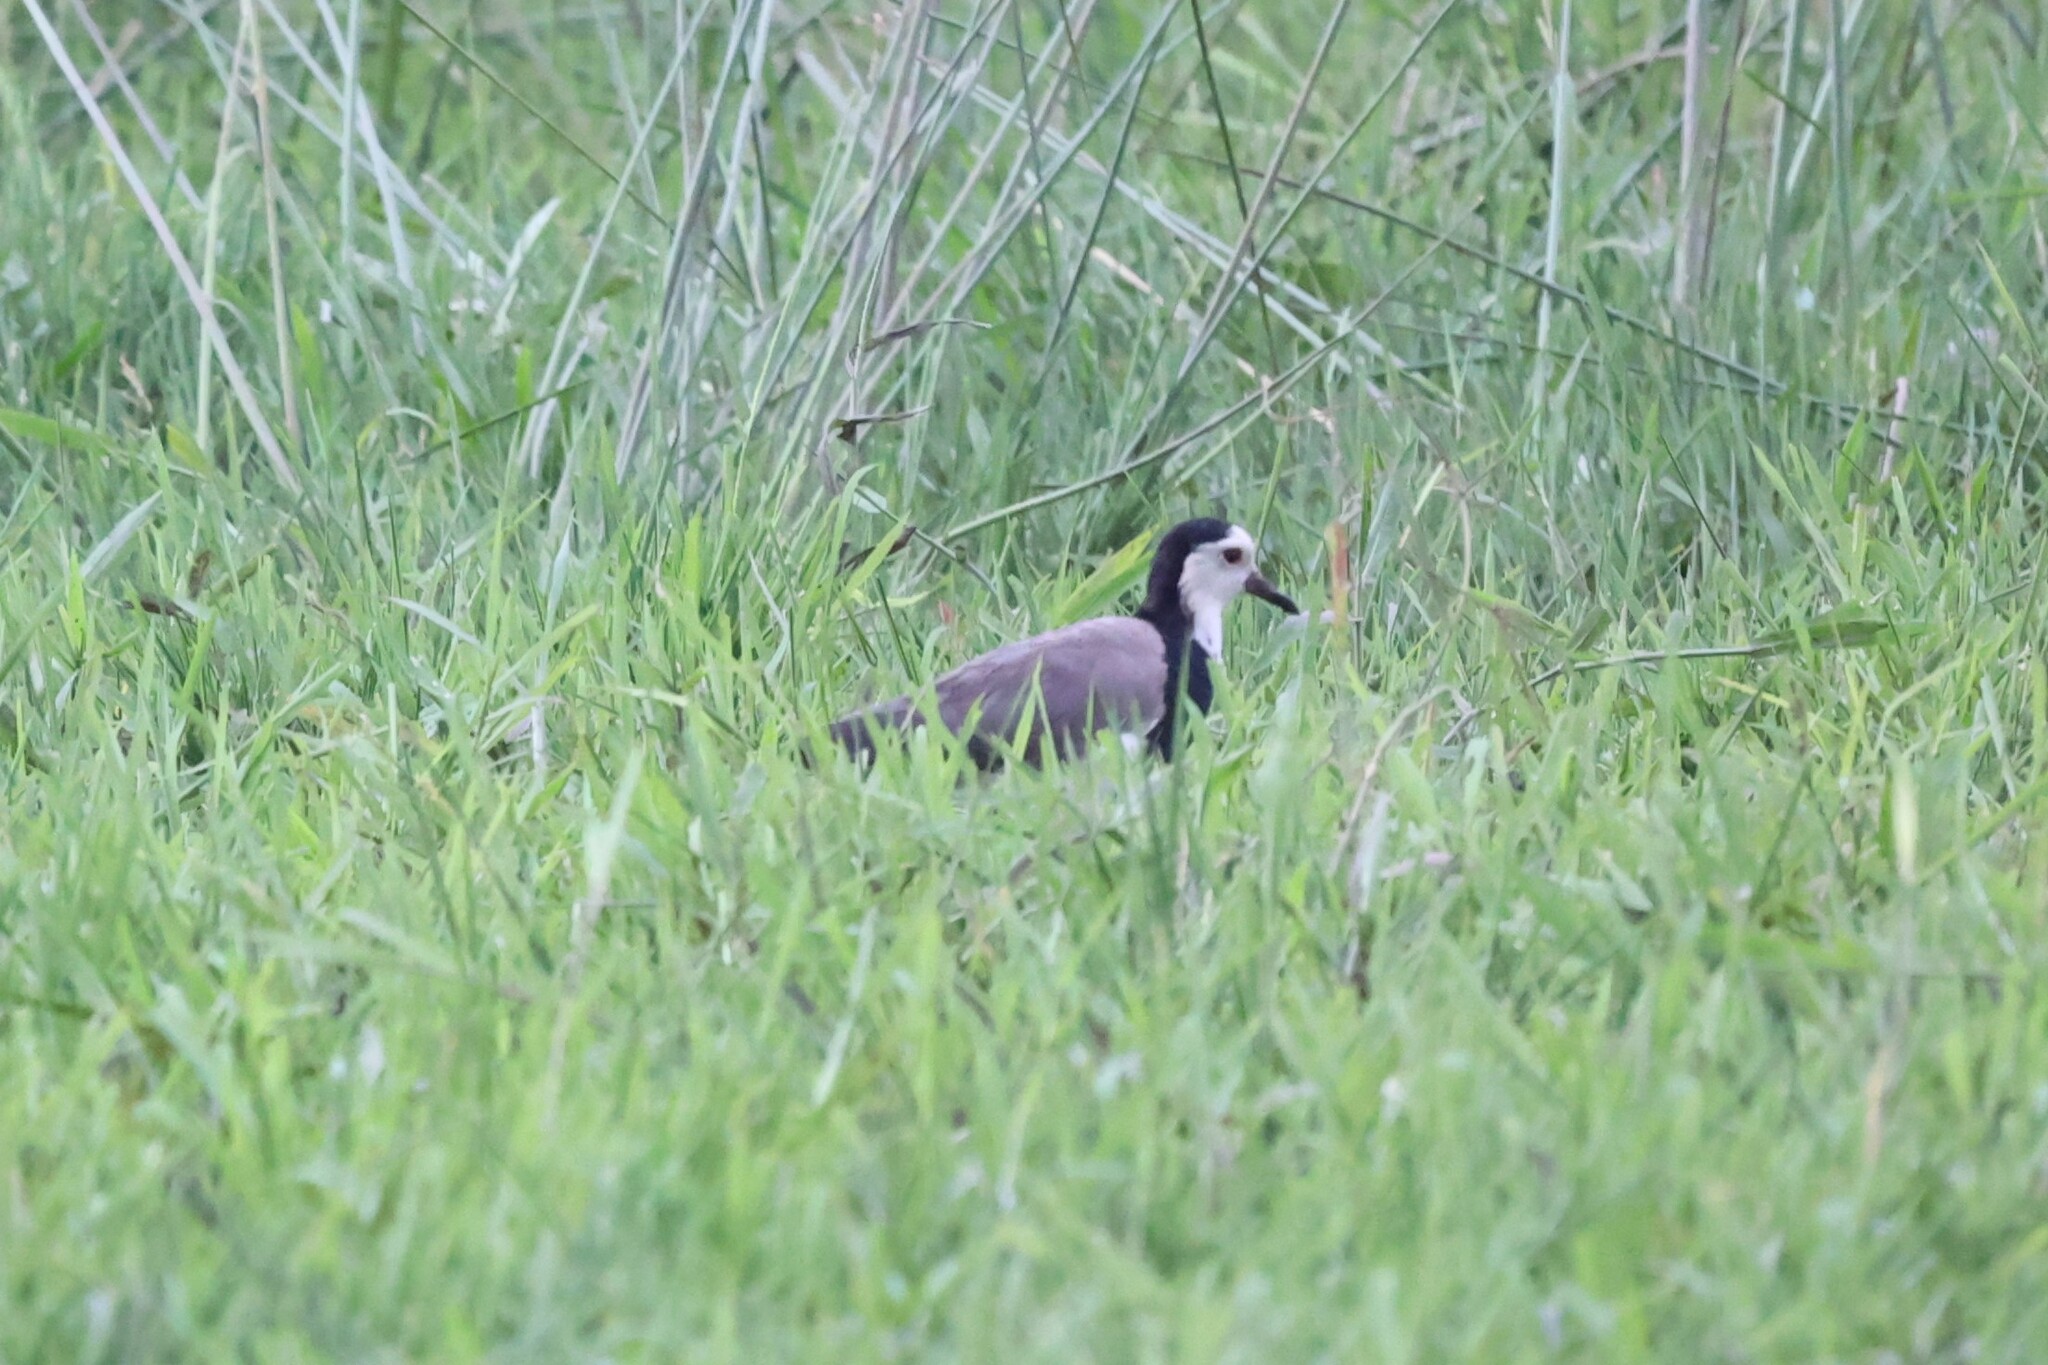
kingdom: Animalia
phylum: Chordata
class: Aves
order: Charadriiformes
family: Charadriidae
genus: Vanellus
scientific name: Vanellus crassirostris
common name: Long-toed lapwing
